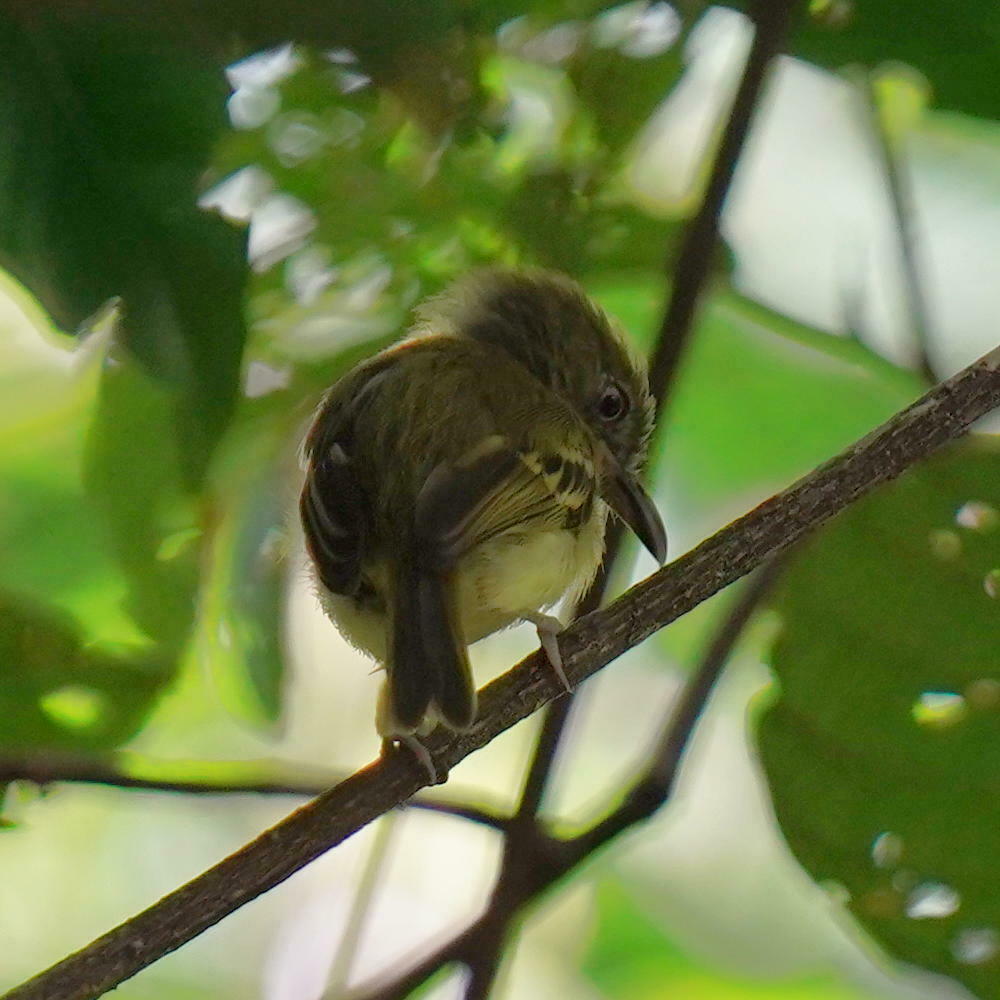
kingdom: Animalia
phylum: Chordata
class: Aves
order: Passeriformes
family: Tyrannidae
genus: Oncostoma
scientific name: Oncostoma olivaceum
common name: Southern bentbill
